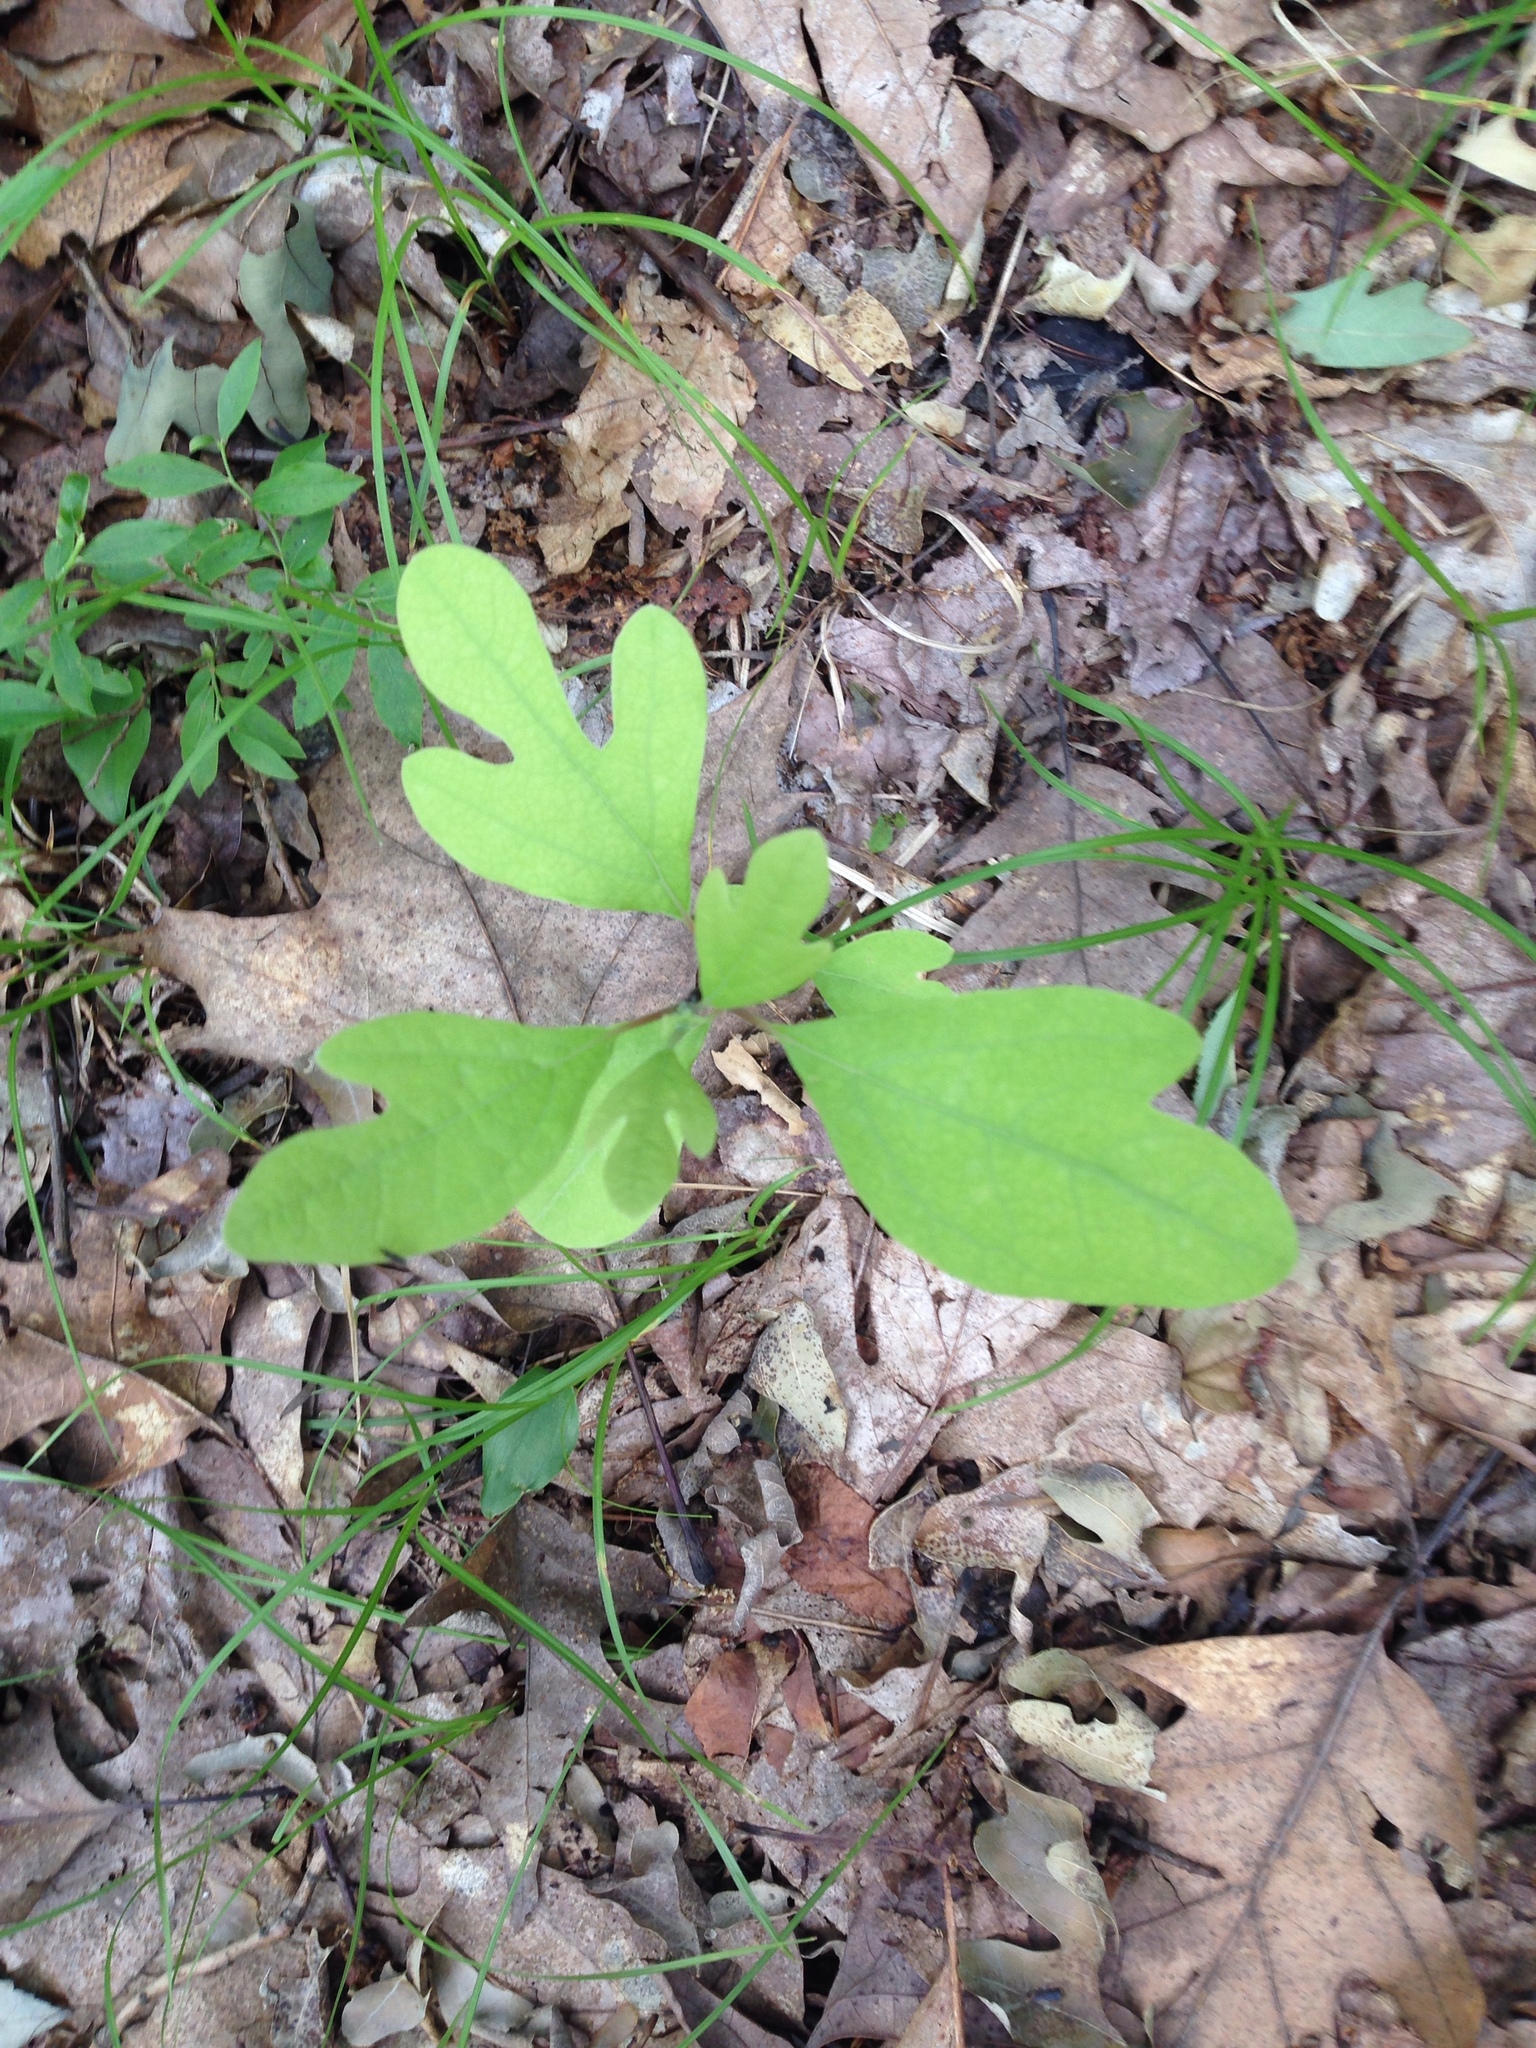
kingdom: Plantae
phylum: Tracheophyta
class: Magnoliopsida
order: Laurales
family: Lauraceae
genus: Sassafras
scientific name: Sassafras albidum
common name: Sassafras
